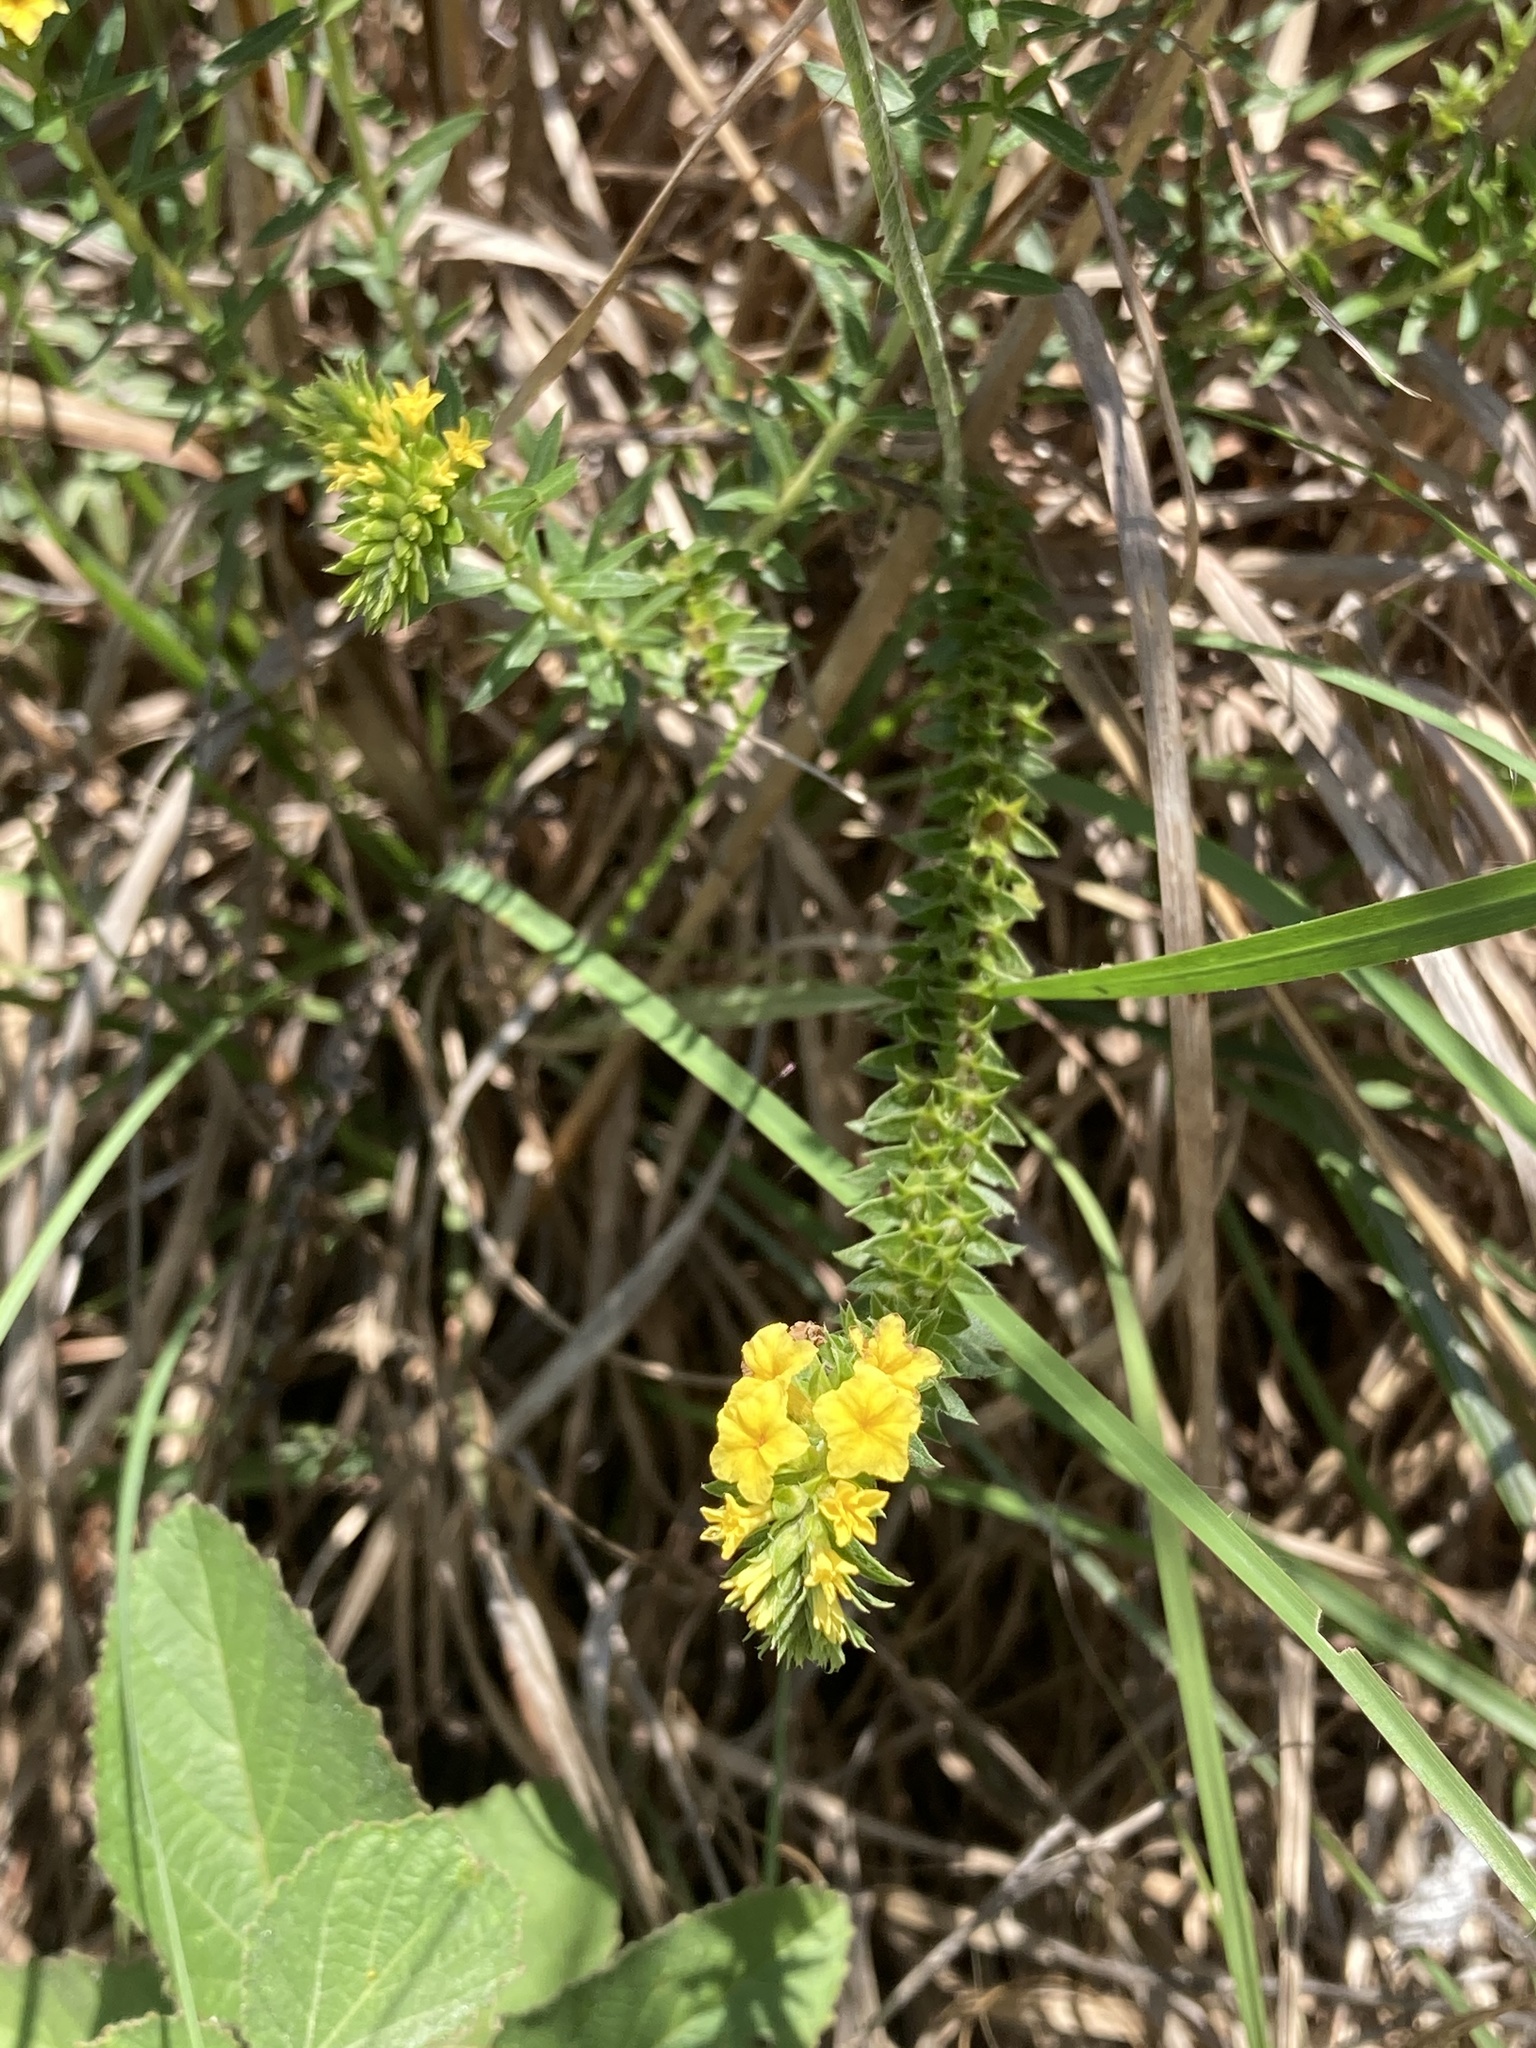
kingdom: Plantae
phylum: Tracheophyta
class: Magnoliopsida
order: Boraginales
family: Heliotropiaceae
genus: Euploca
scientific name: Euploca polyphylla
